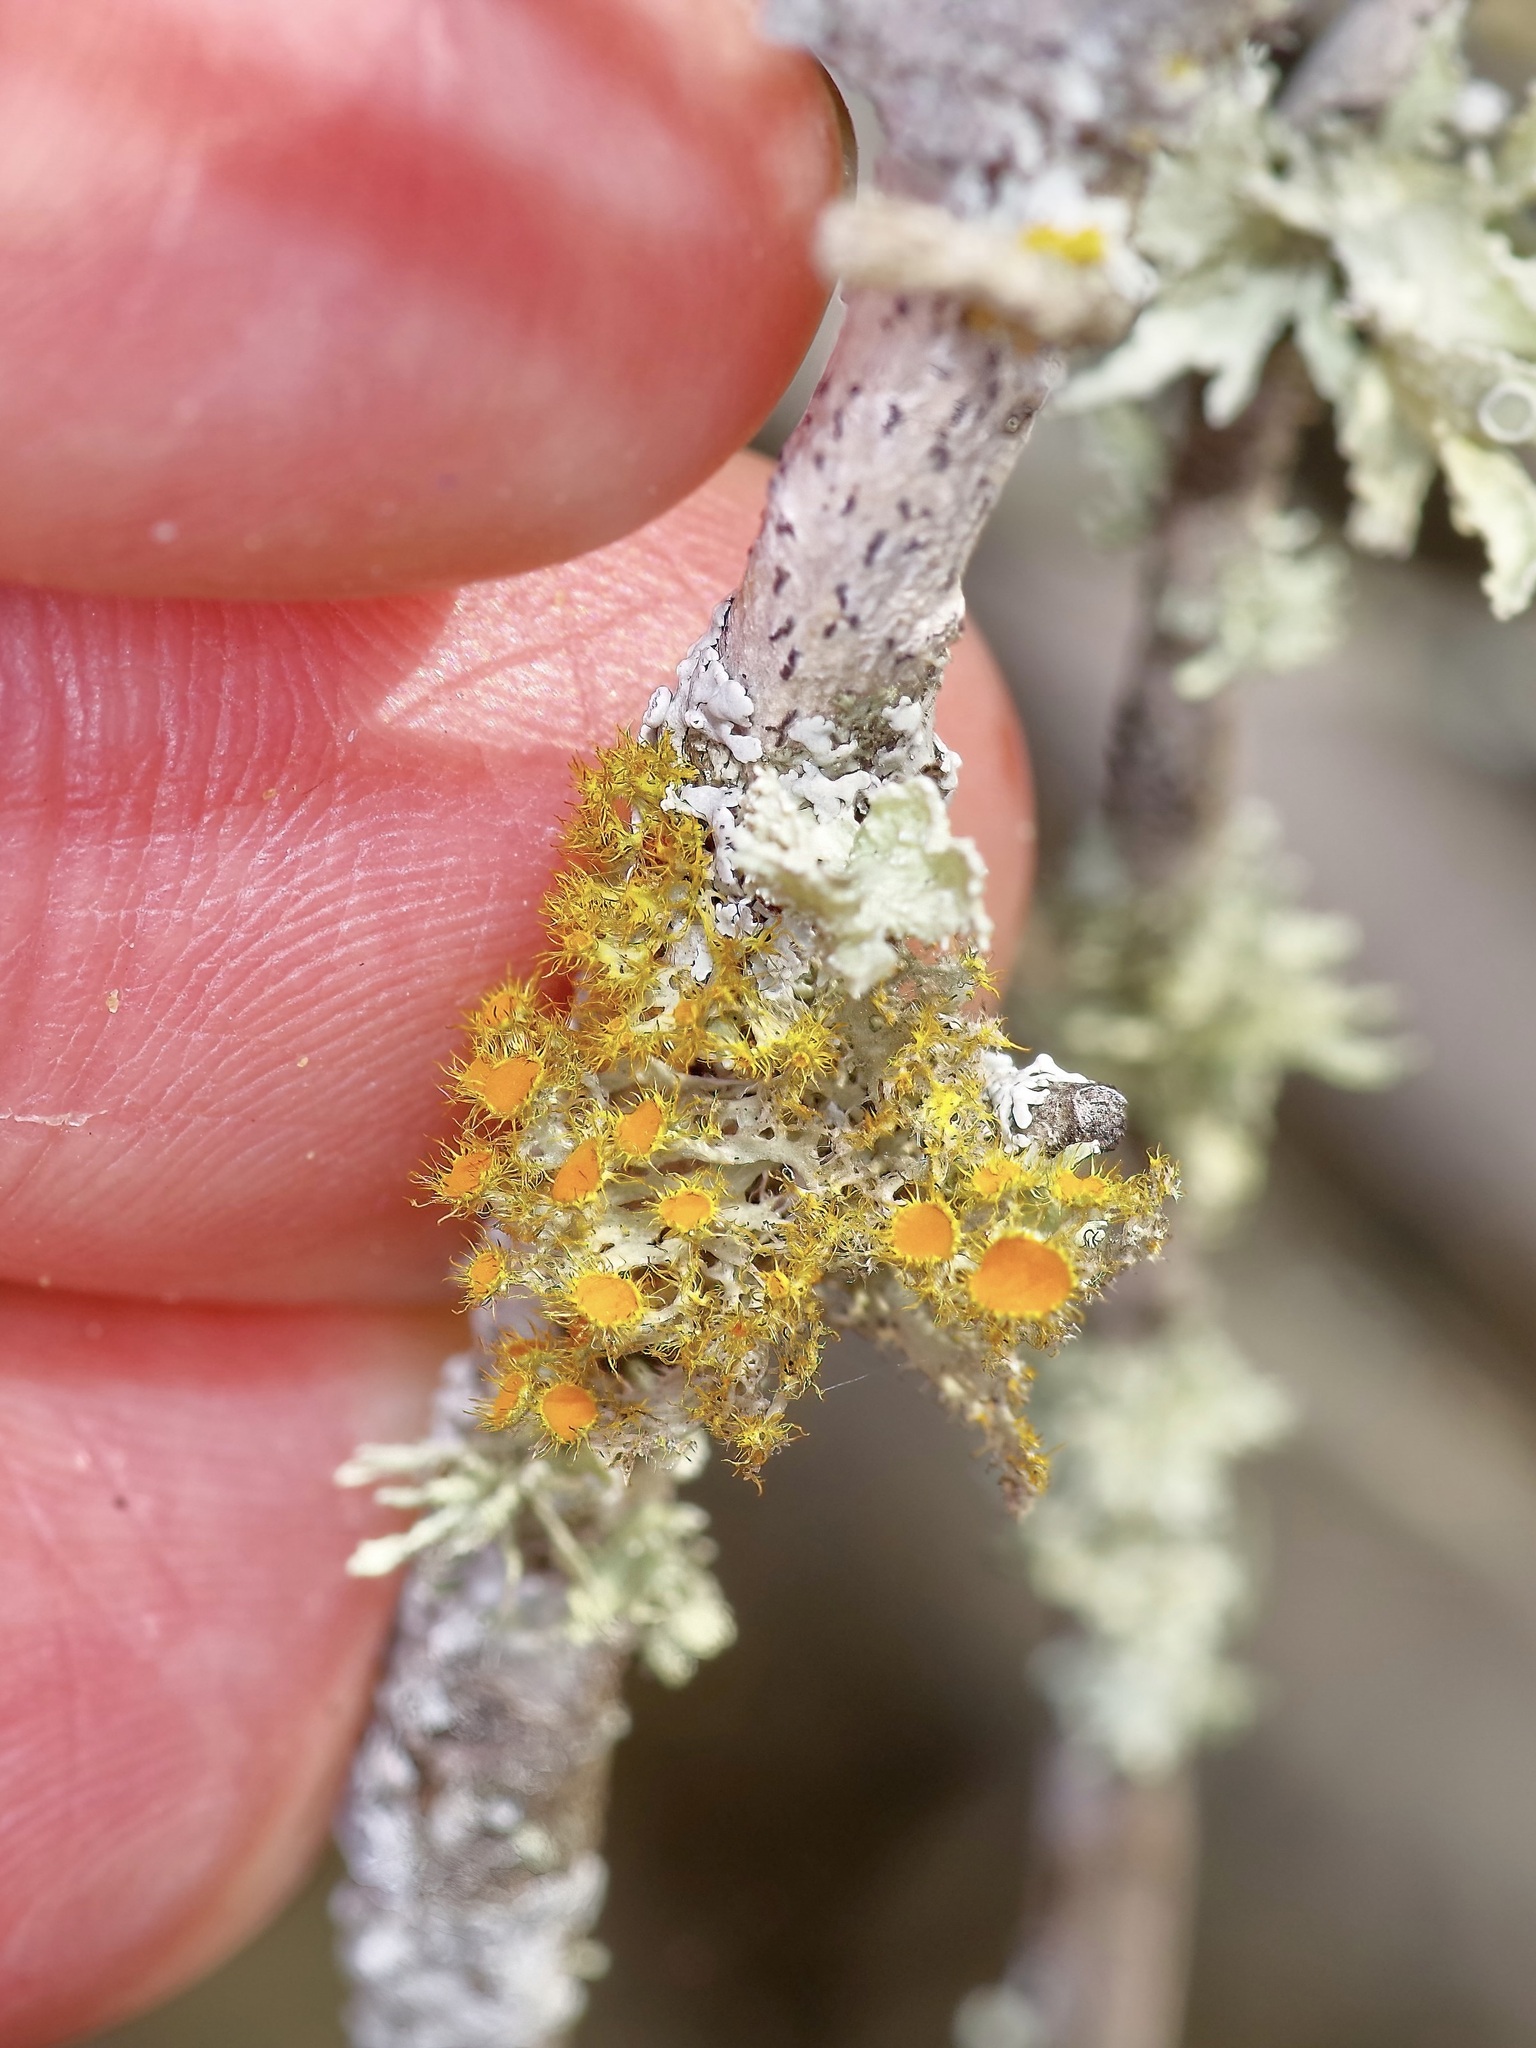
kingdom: Fungi
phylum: Ascomycota
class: Lecanoromycetes
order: Teloschistales
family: Teloschistaceae
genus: Niorma
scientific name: Niorma chrysophthalma
